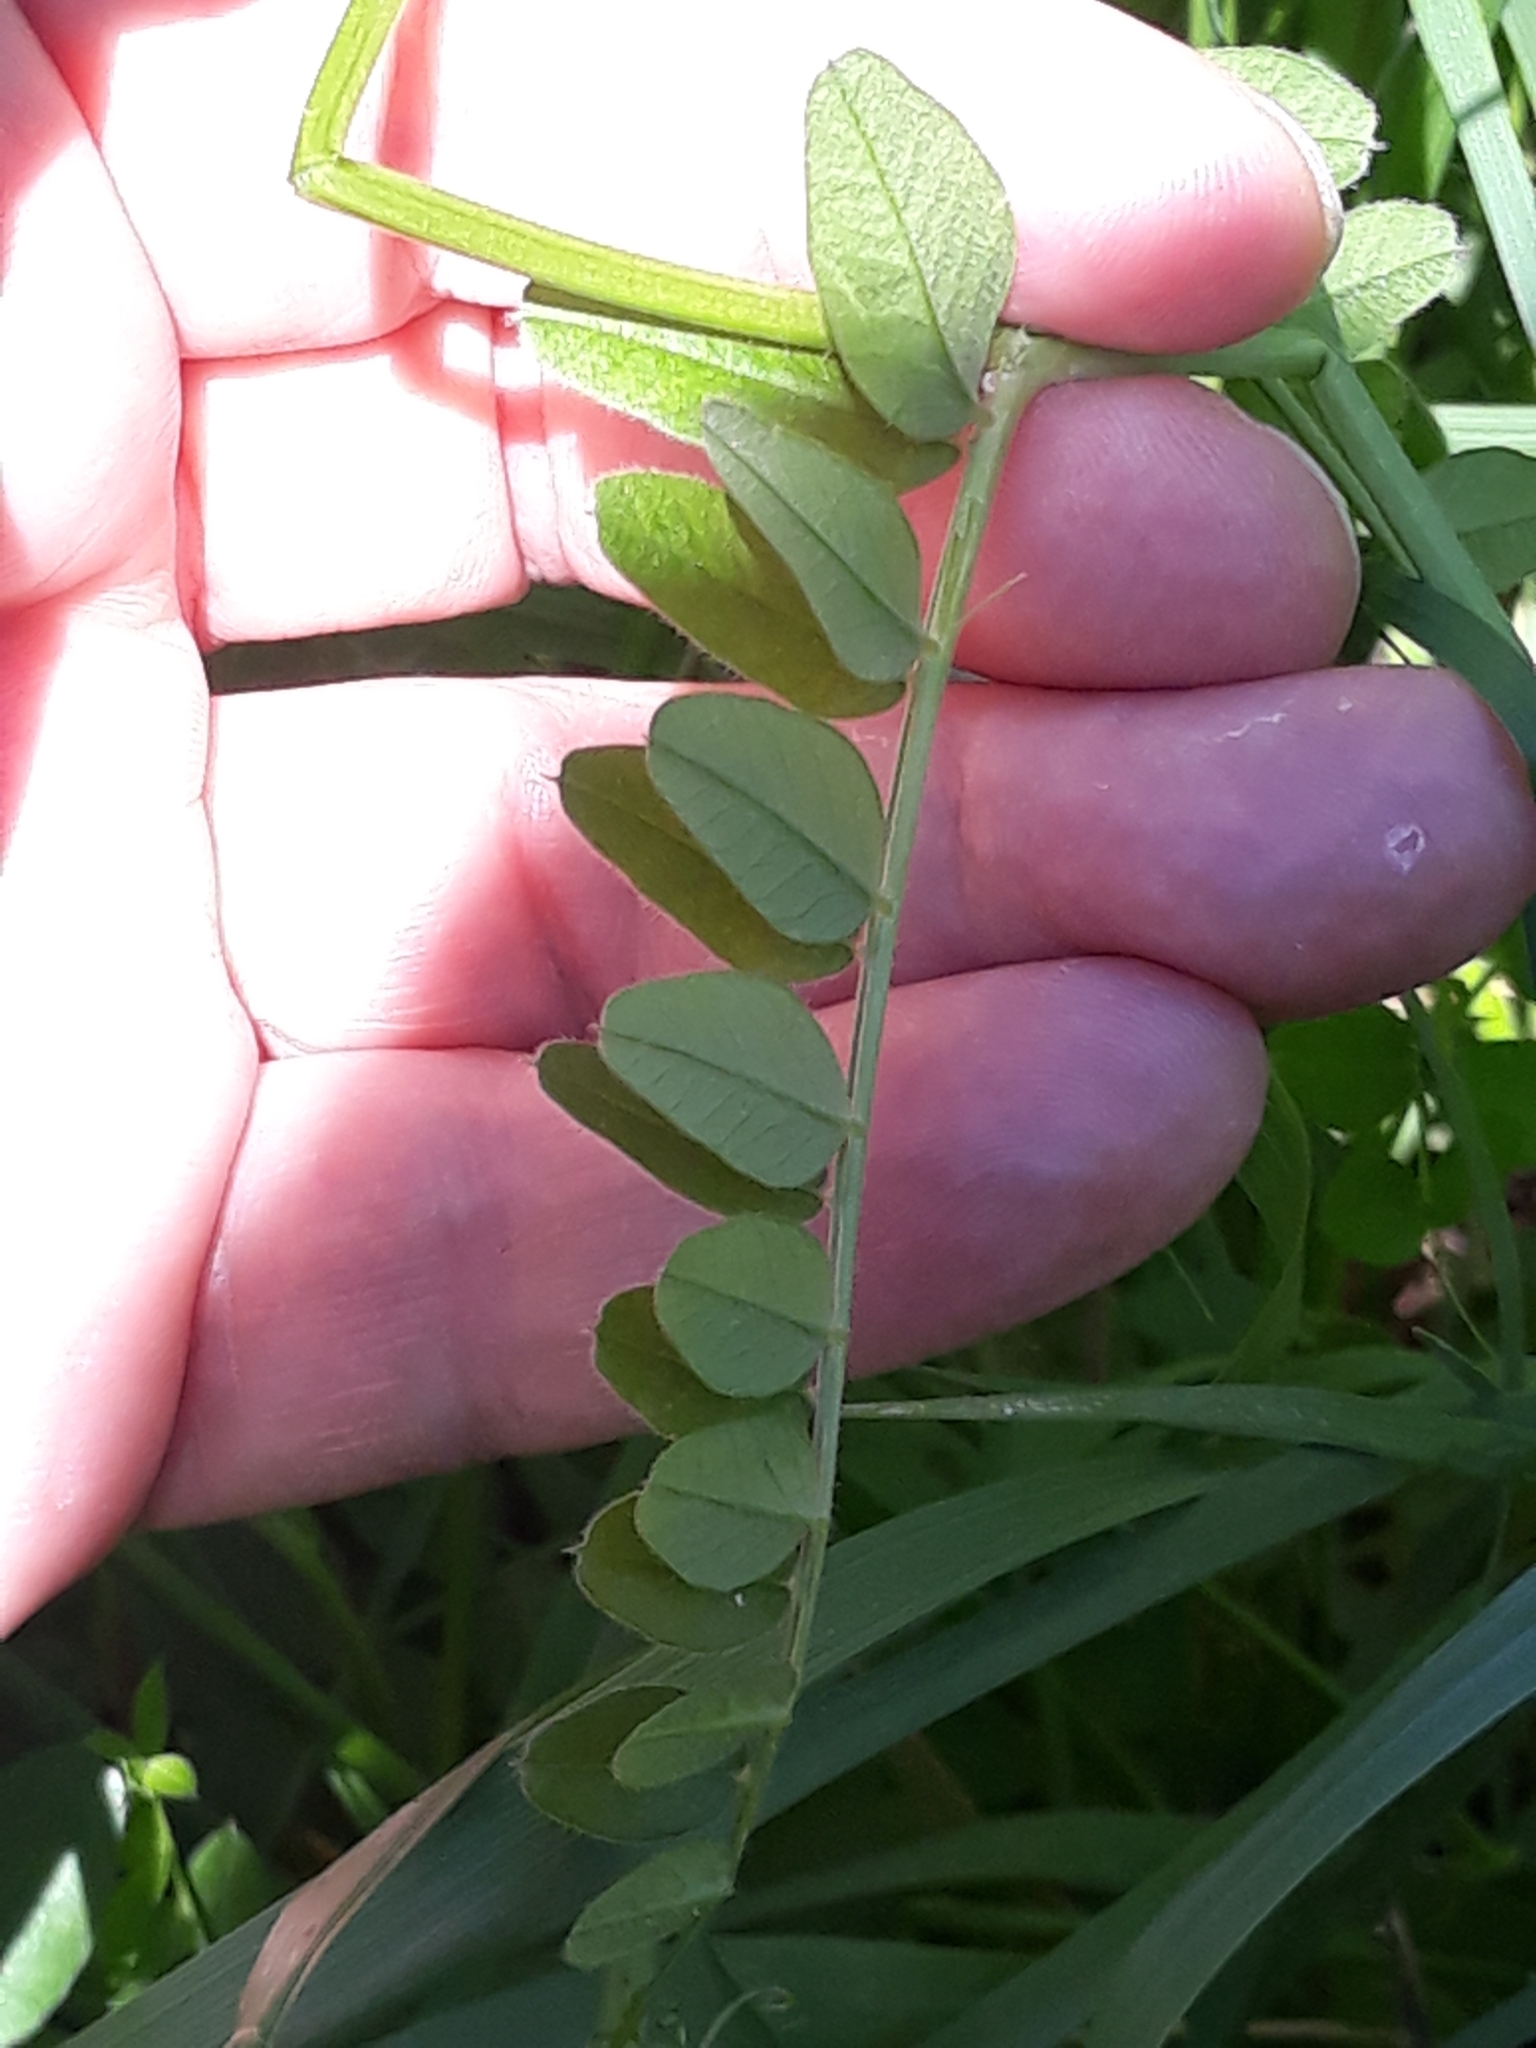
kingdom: Plantae
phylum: Tracheophyta
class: Magnoliopsida
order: Fabales
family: Fabaceae
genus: Vicia
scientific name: Vicia sepium
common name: Bush vetch
